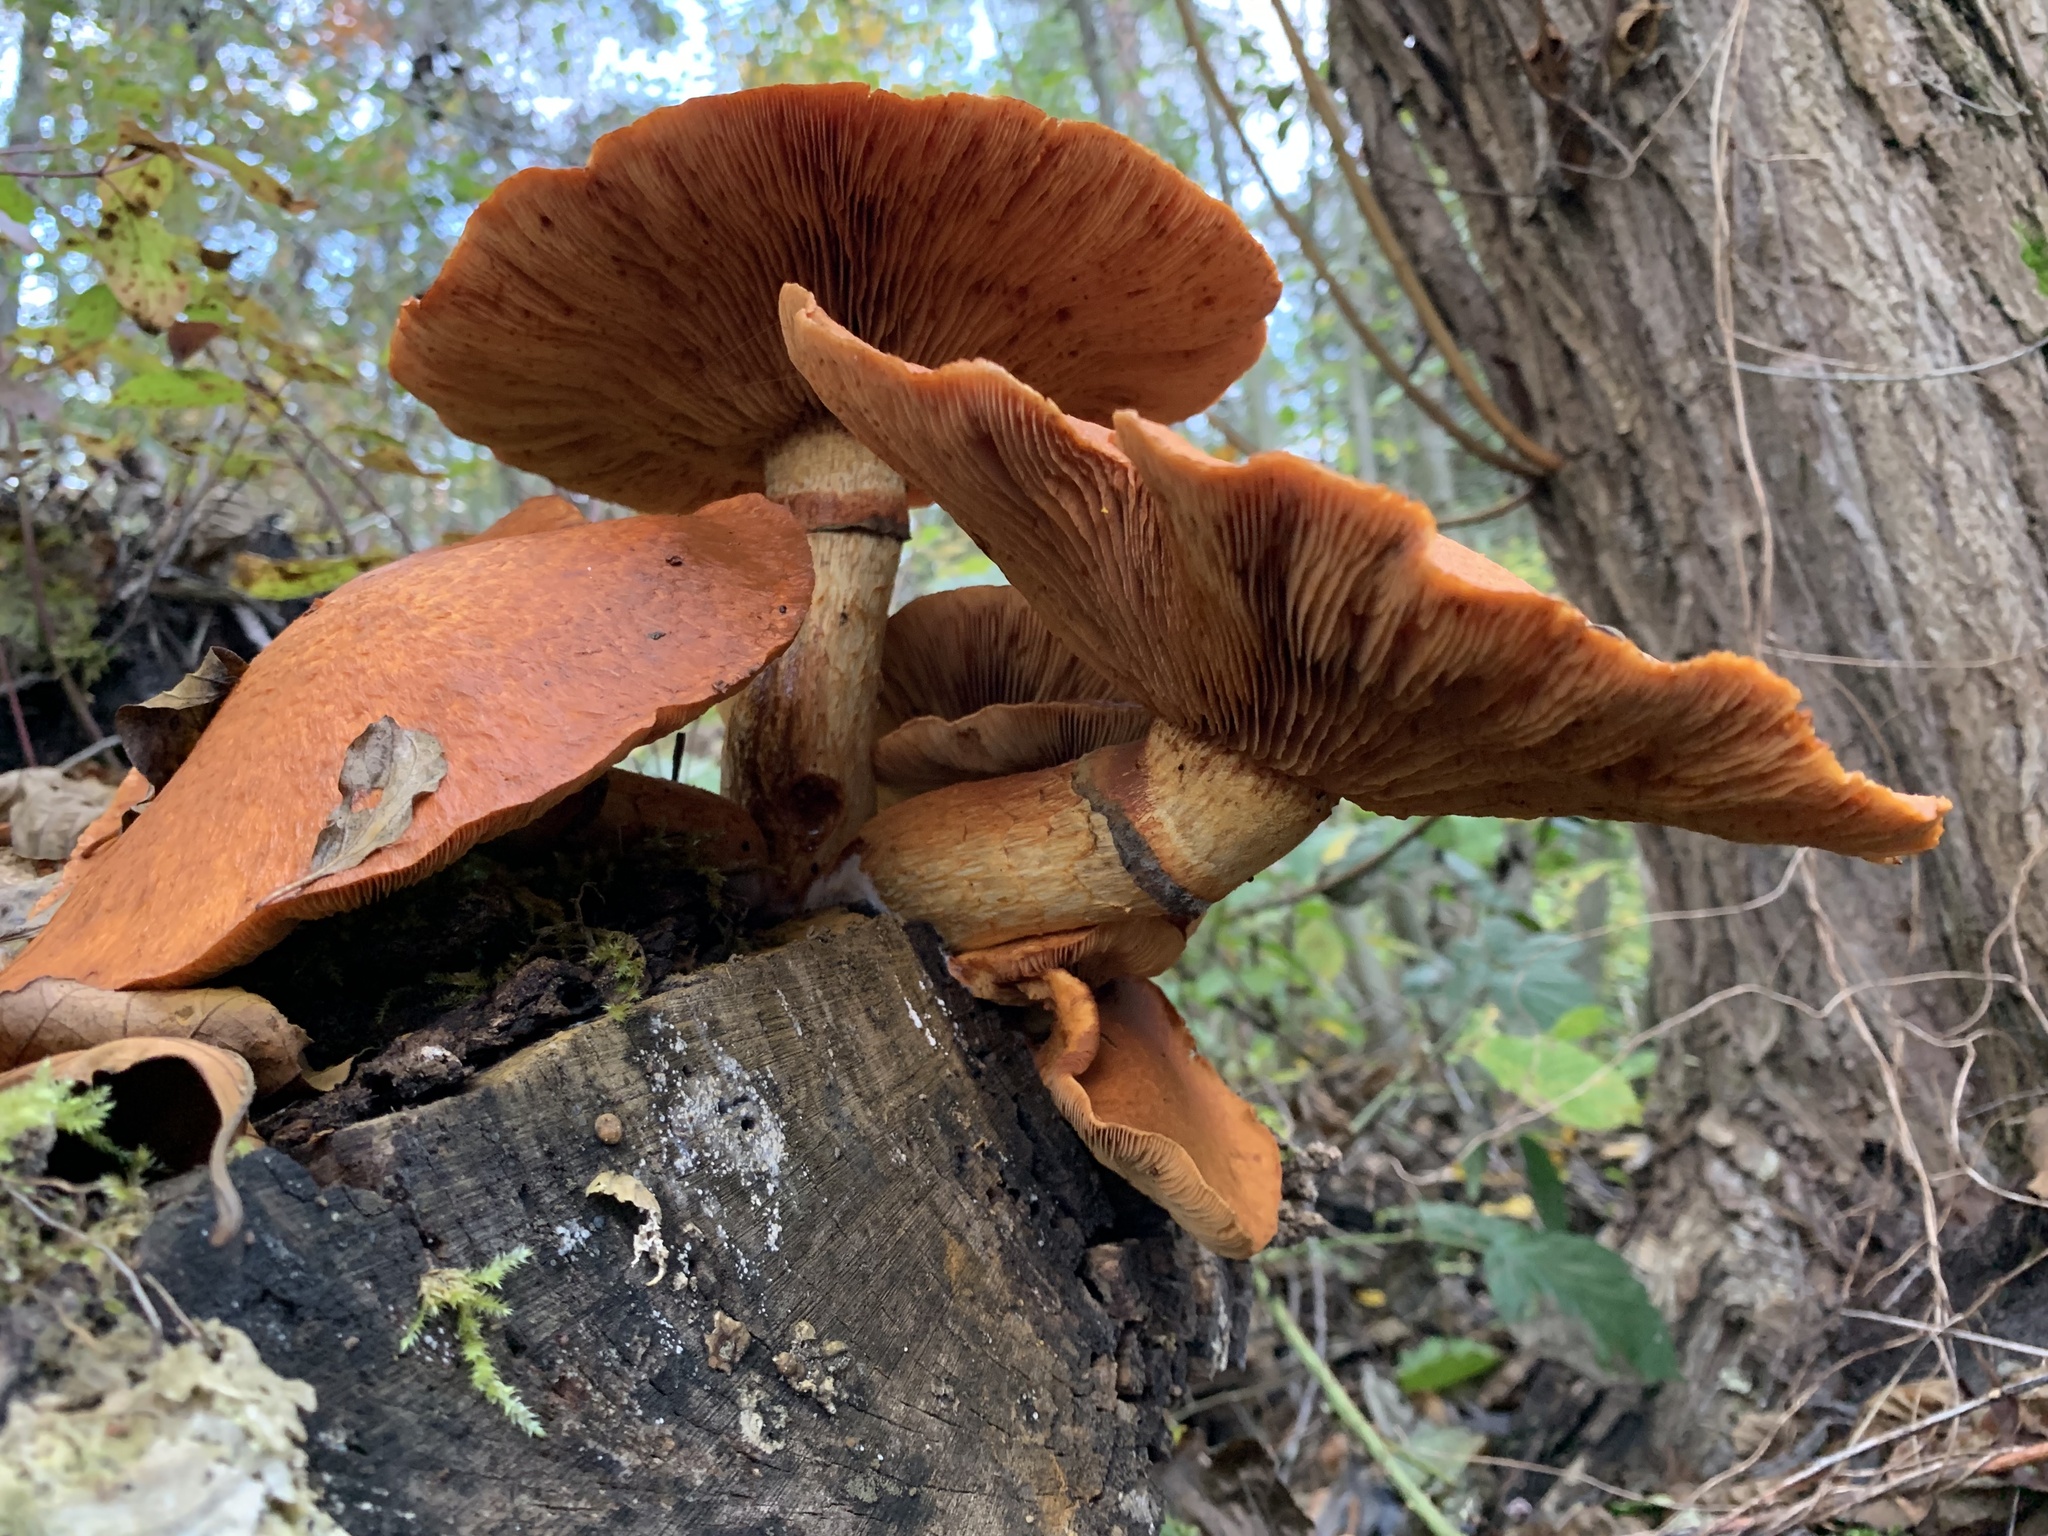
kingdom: Fungi
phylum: Basidiomycota
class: Agaricomycetes
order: Agaricales
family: Hymenogastraceae
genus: Gymnopilus
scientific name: Gymnopilus junonius
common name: Spectacular rustgill
